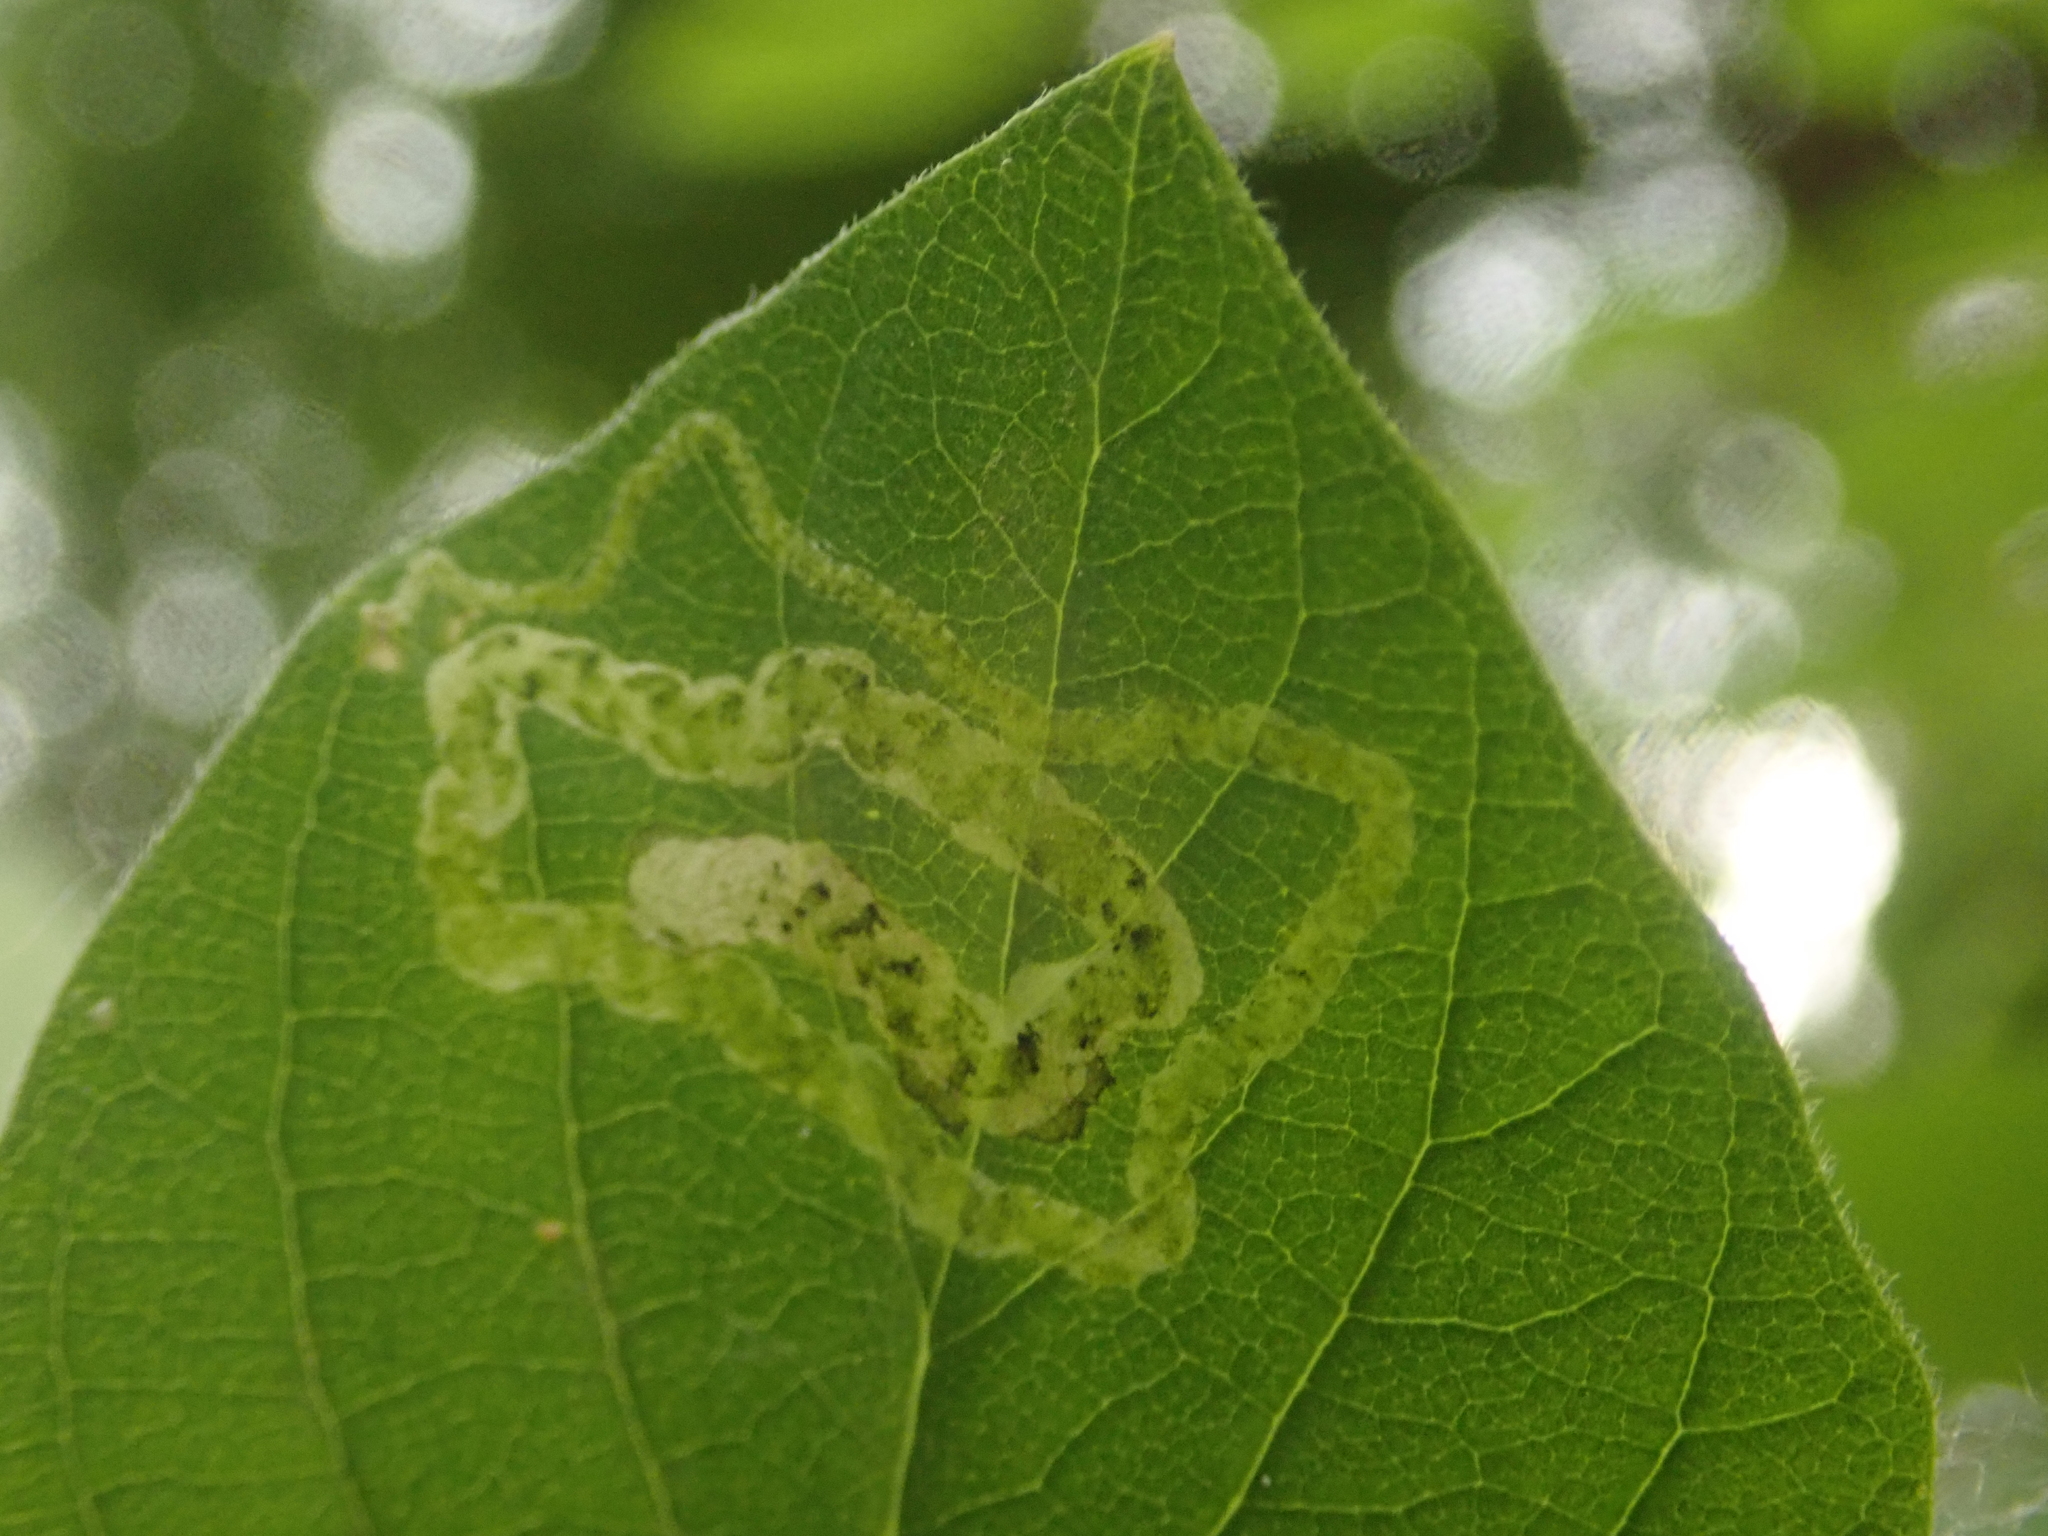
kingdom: Animalia
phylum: Arthropoda
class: Insecta
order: Diptera
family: Agromyzidae
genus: Aulagromyza
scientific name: Aulagromyza luteoscutellata
